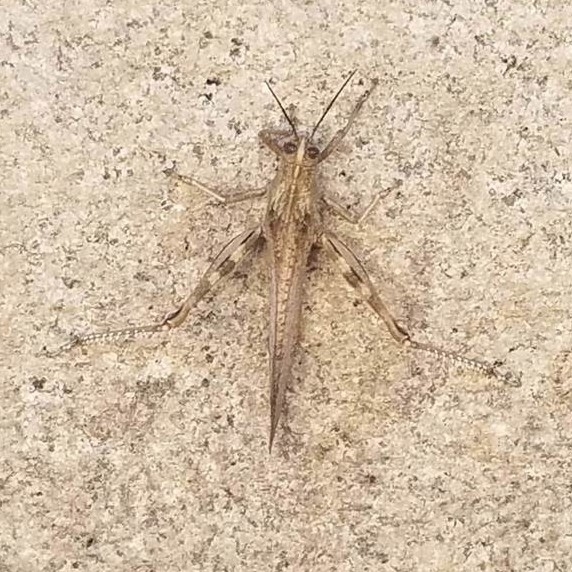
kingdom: Animalia
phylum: Arthropoda
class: Insecta
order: Orthoptera
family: Acrididae
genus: Anacridium
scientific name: Anacridium aegyptium
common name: Egyptian grasshopper
